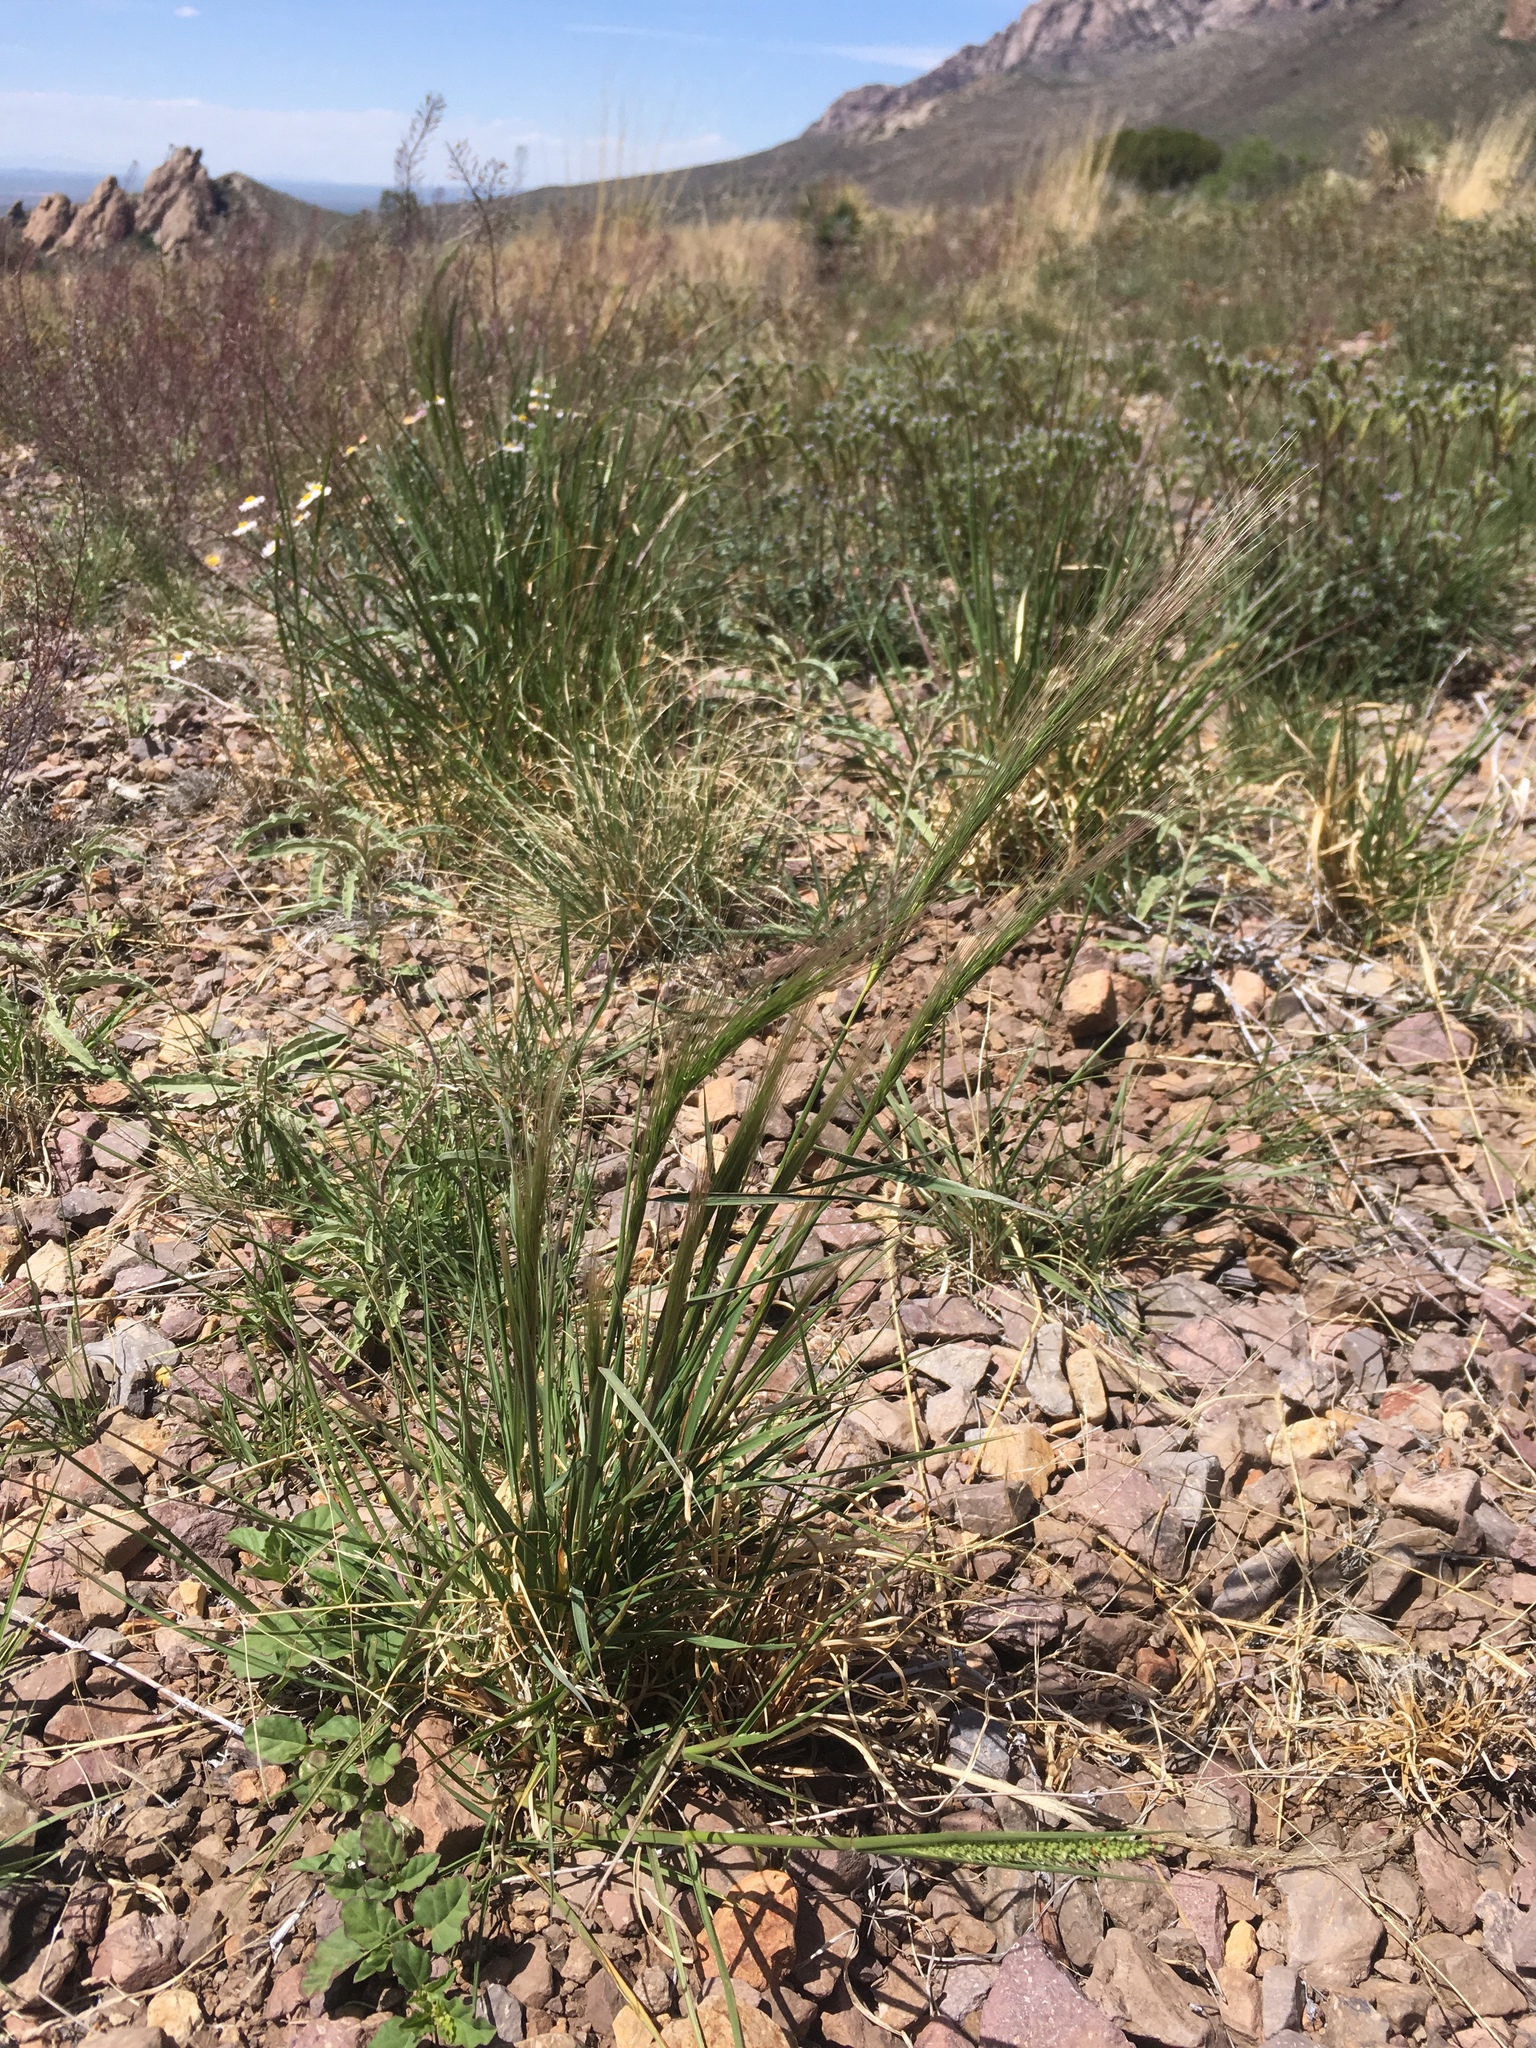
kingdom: Plantae
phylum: Tracheophyta
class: Liliopsida
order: Poales
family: Poaceae
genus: Elymus
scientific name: Elymus longifolius
